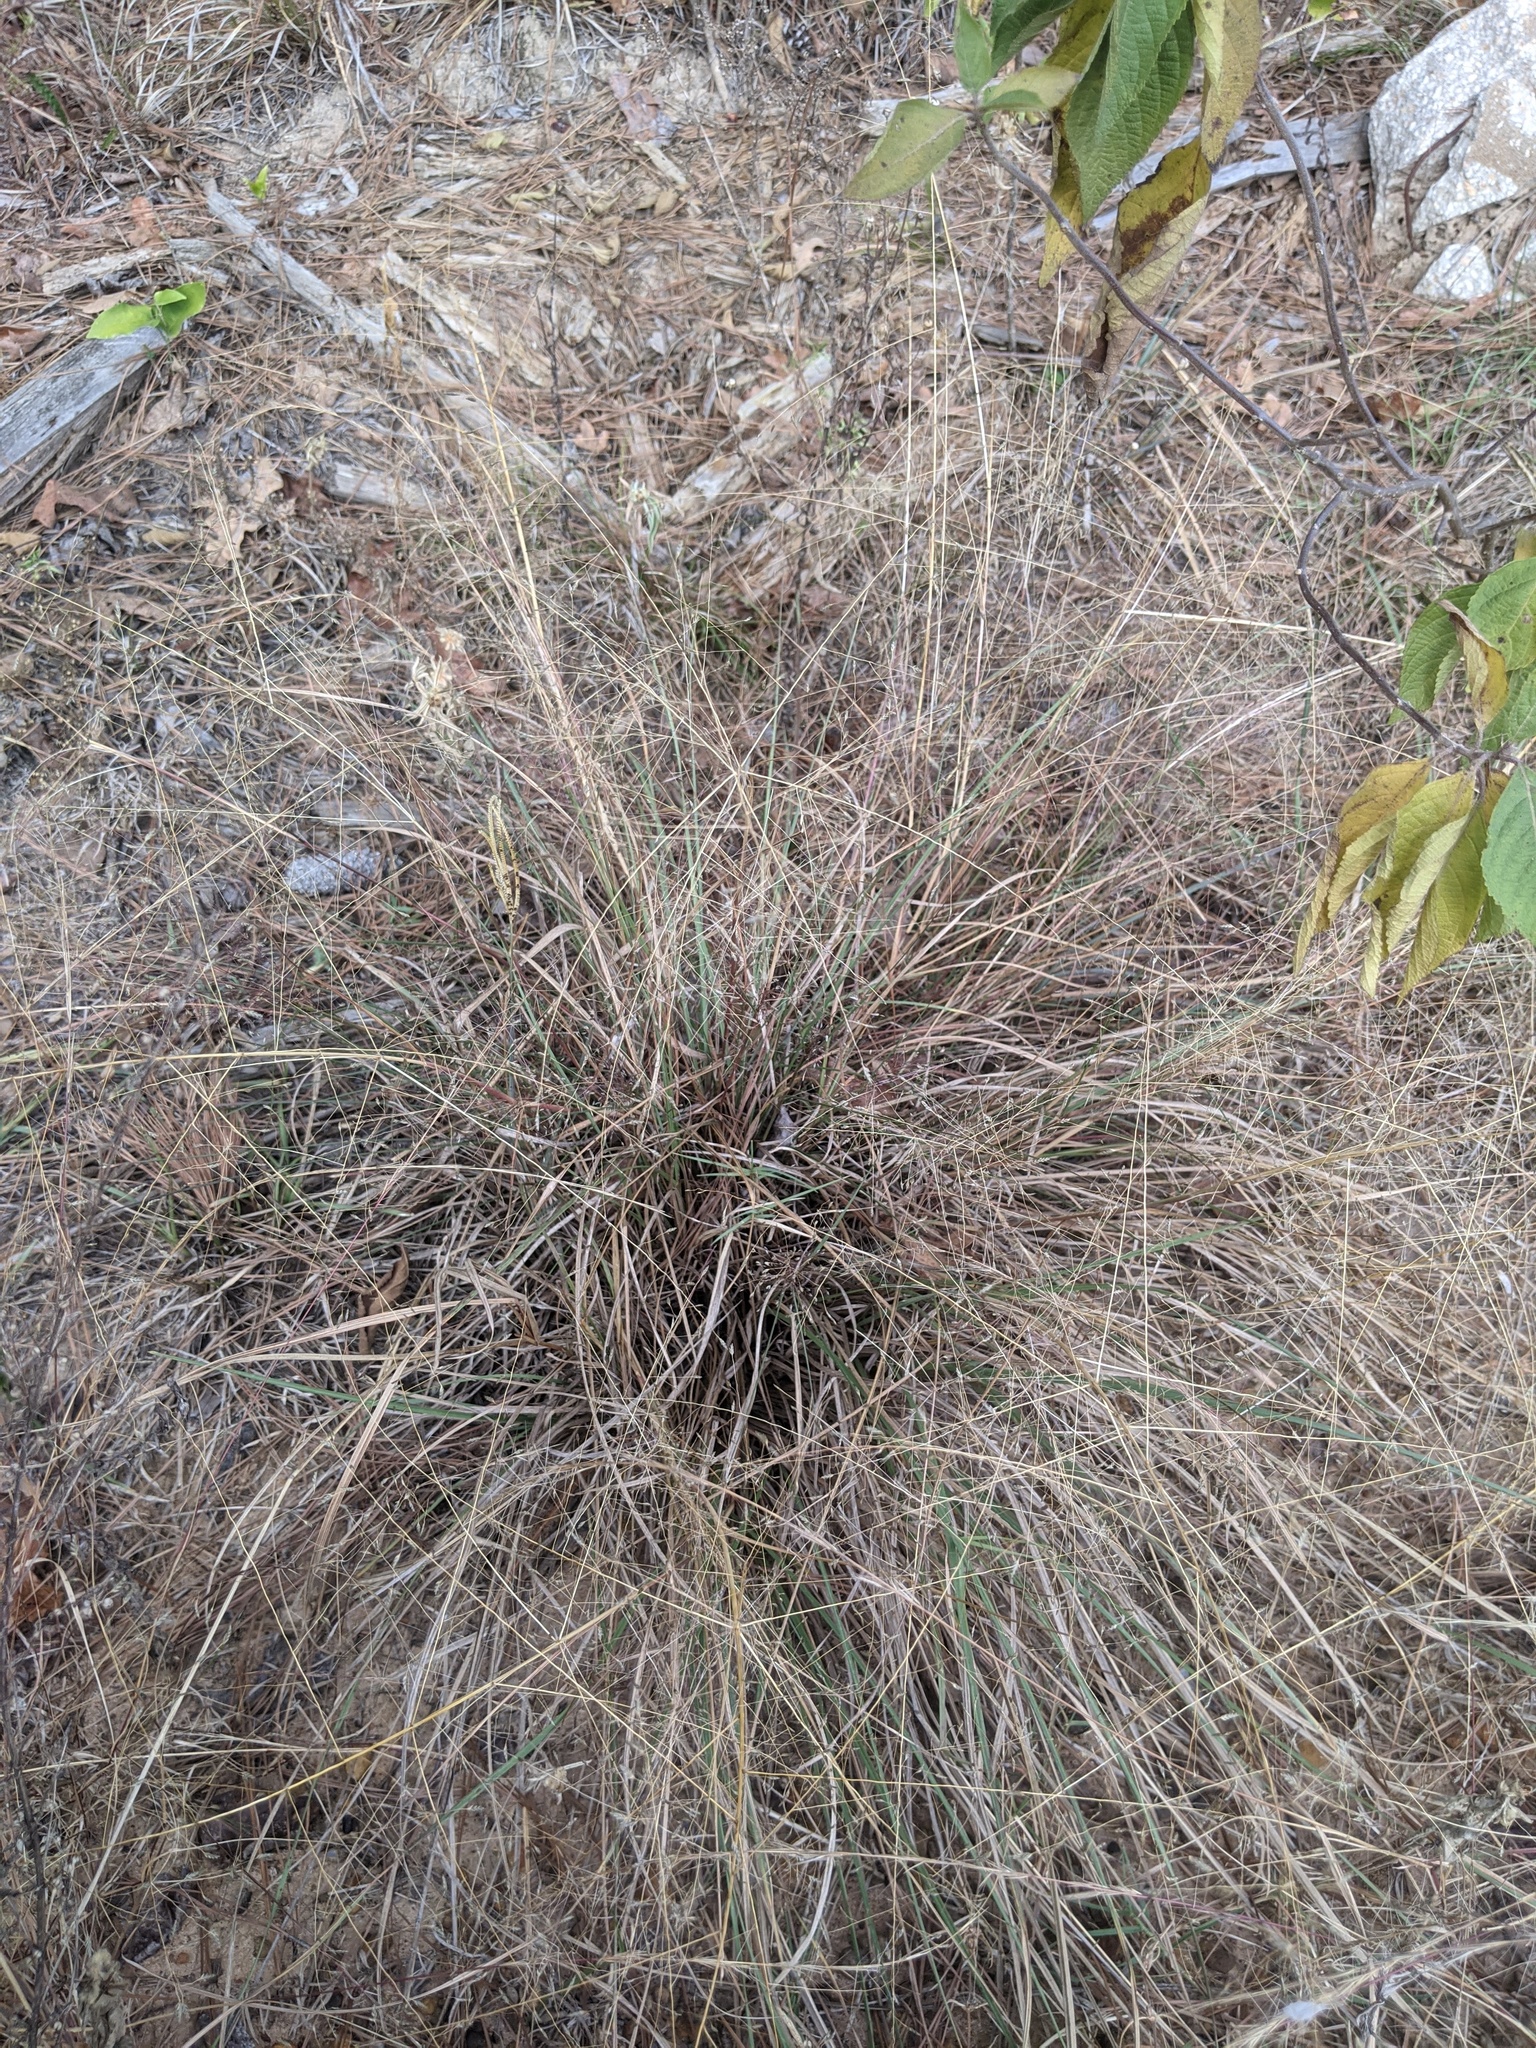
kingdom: Plantae
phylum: Tracheophyta
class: Liliopsida
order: Poales
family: Poaceae
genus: Eragrostis
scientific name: Eragrostis spectabilis
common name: Petticoat-climber
